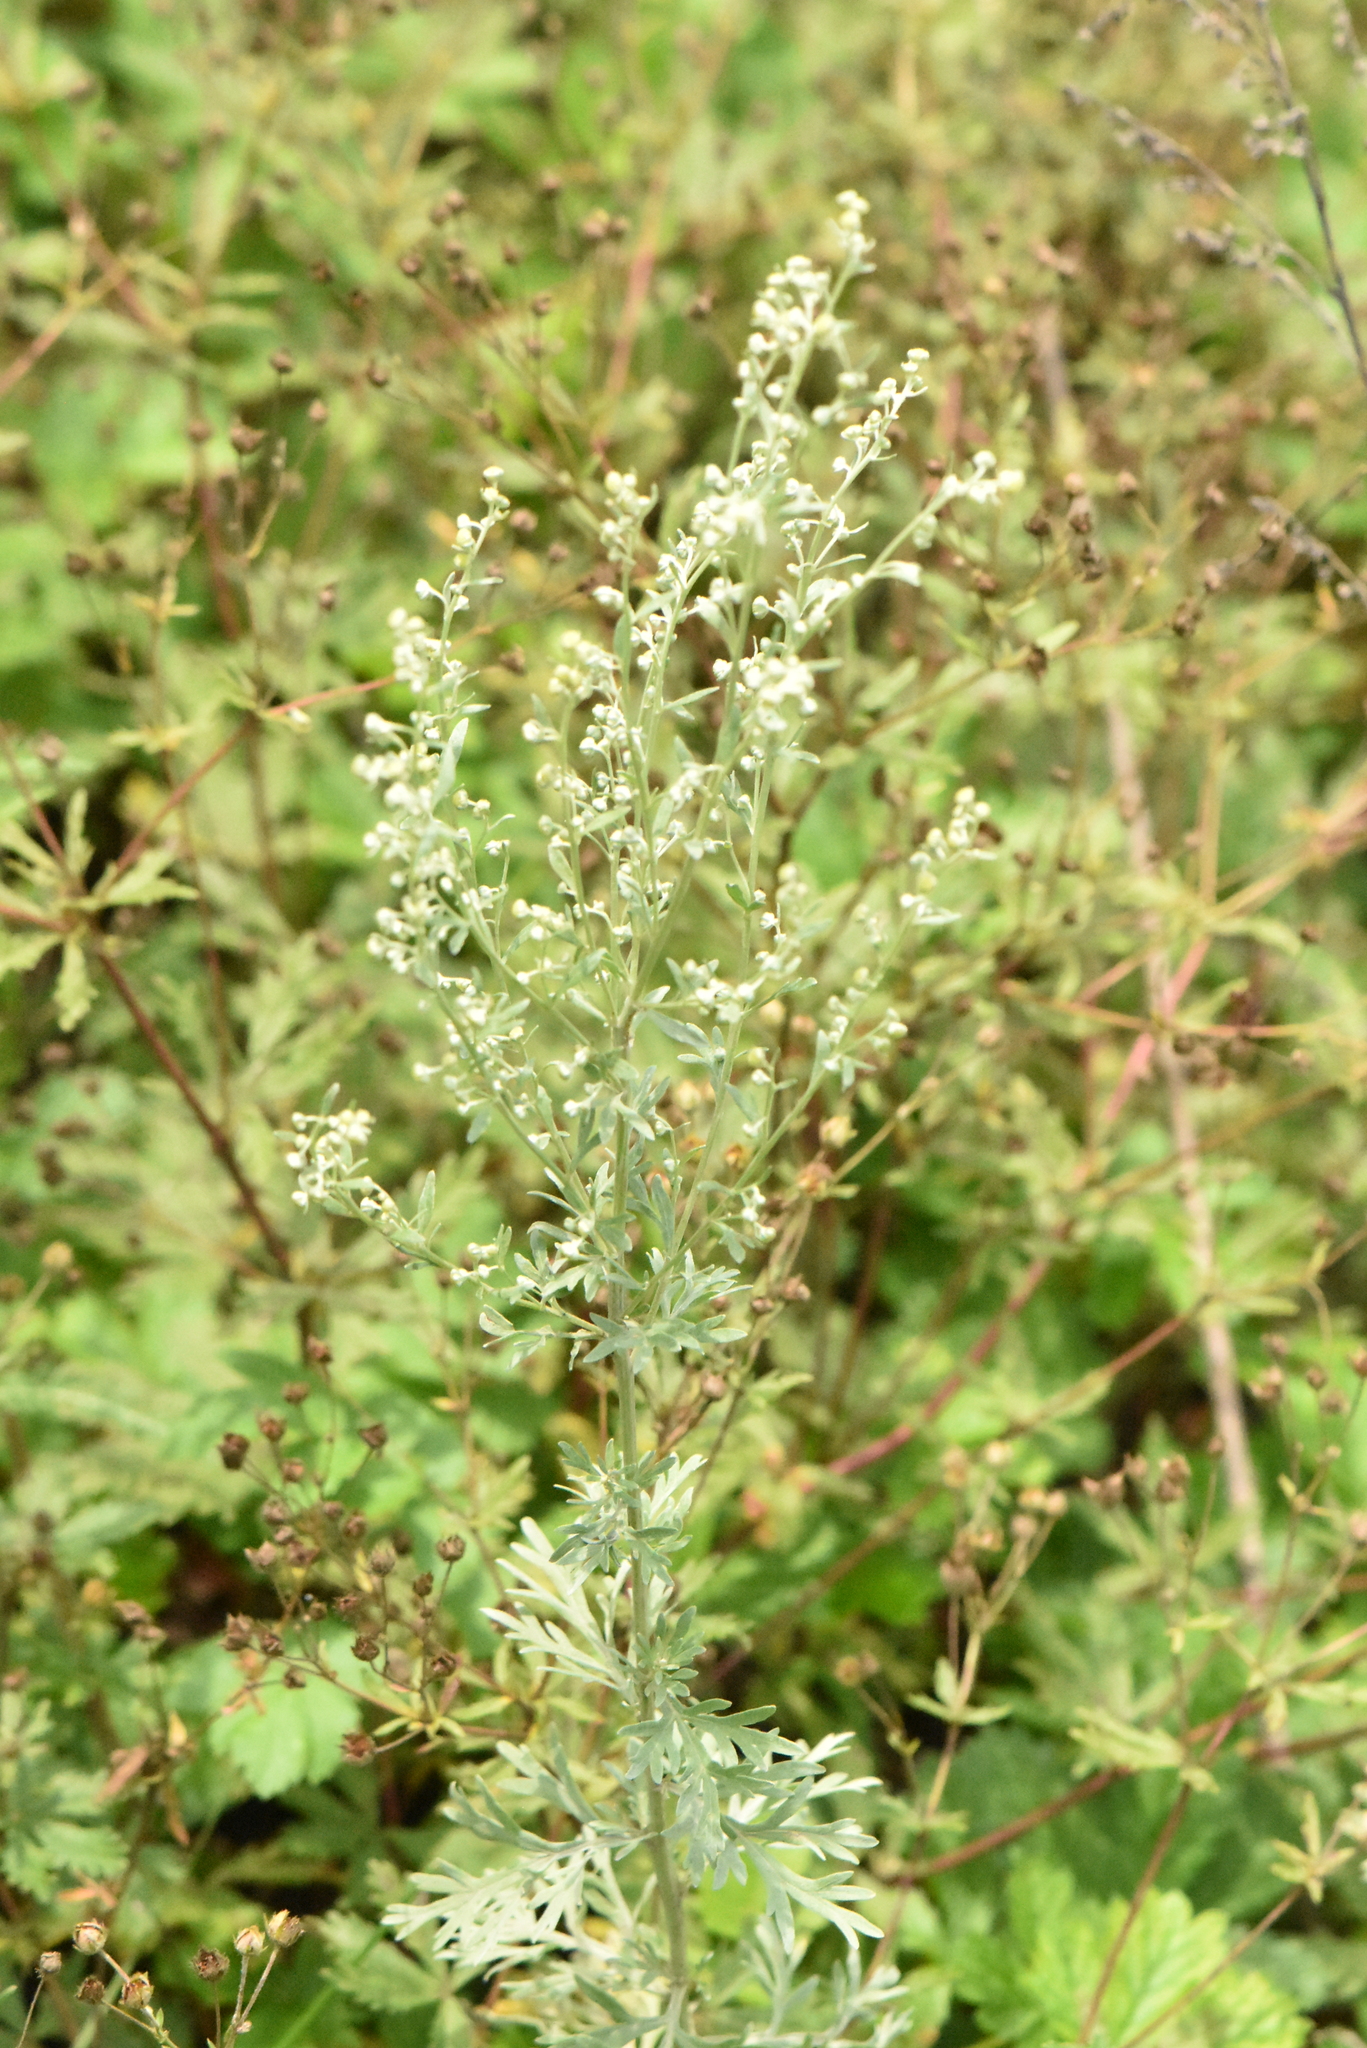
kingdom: Plantae
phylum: Tracheophyta
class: Magnoliopsida
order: Asterales
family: Asteraceae
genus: Artemisia
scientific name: Artemisia absinthium
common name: Wormwood
